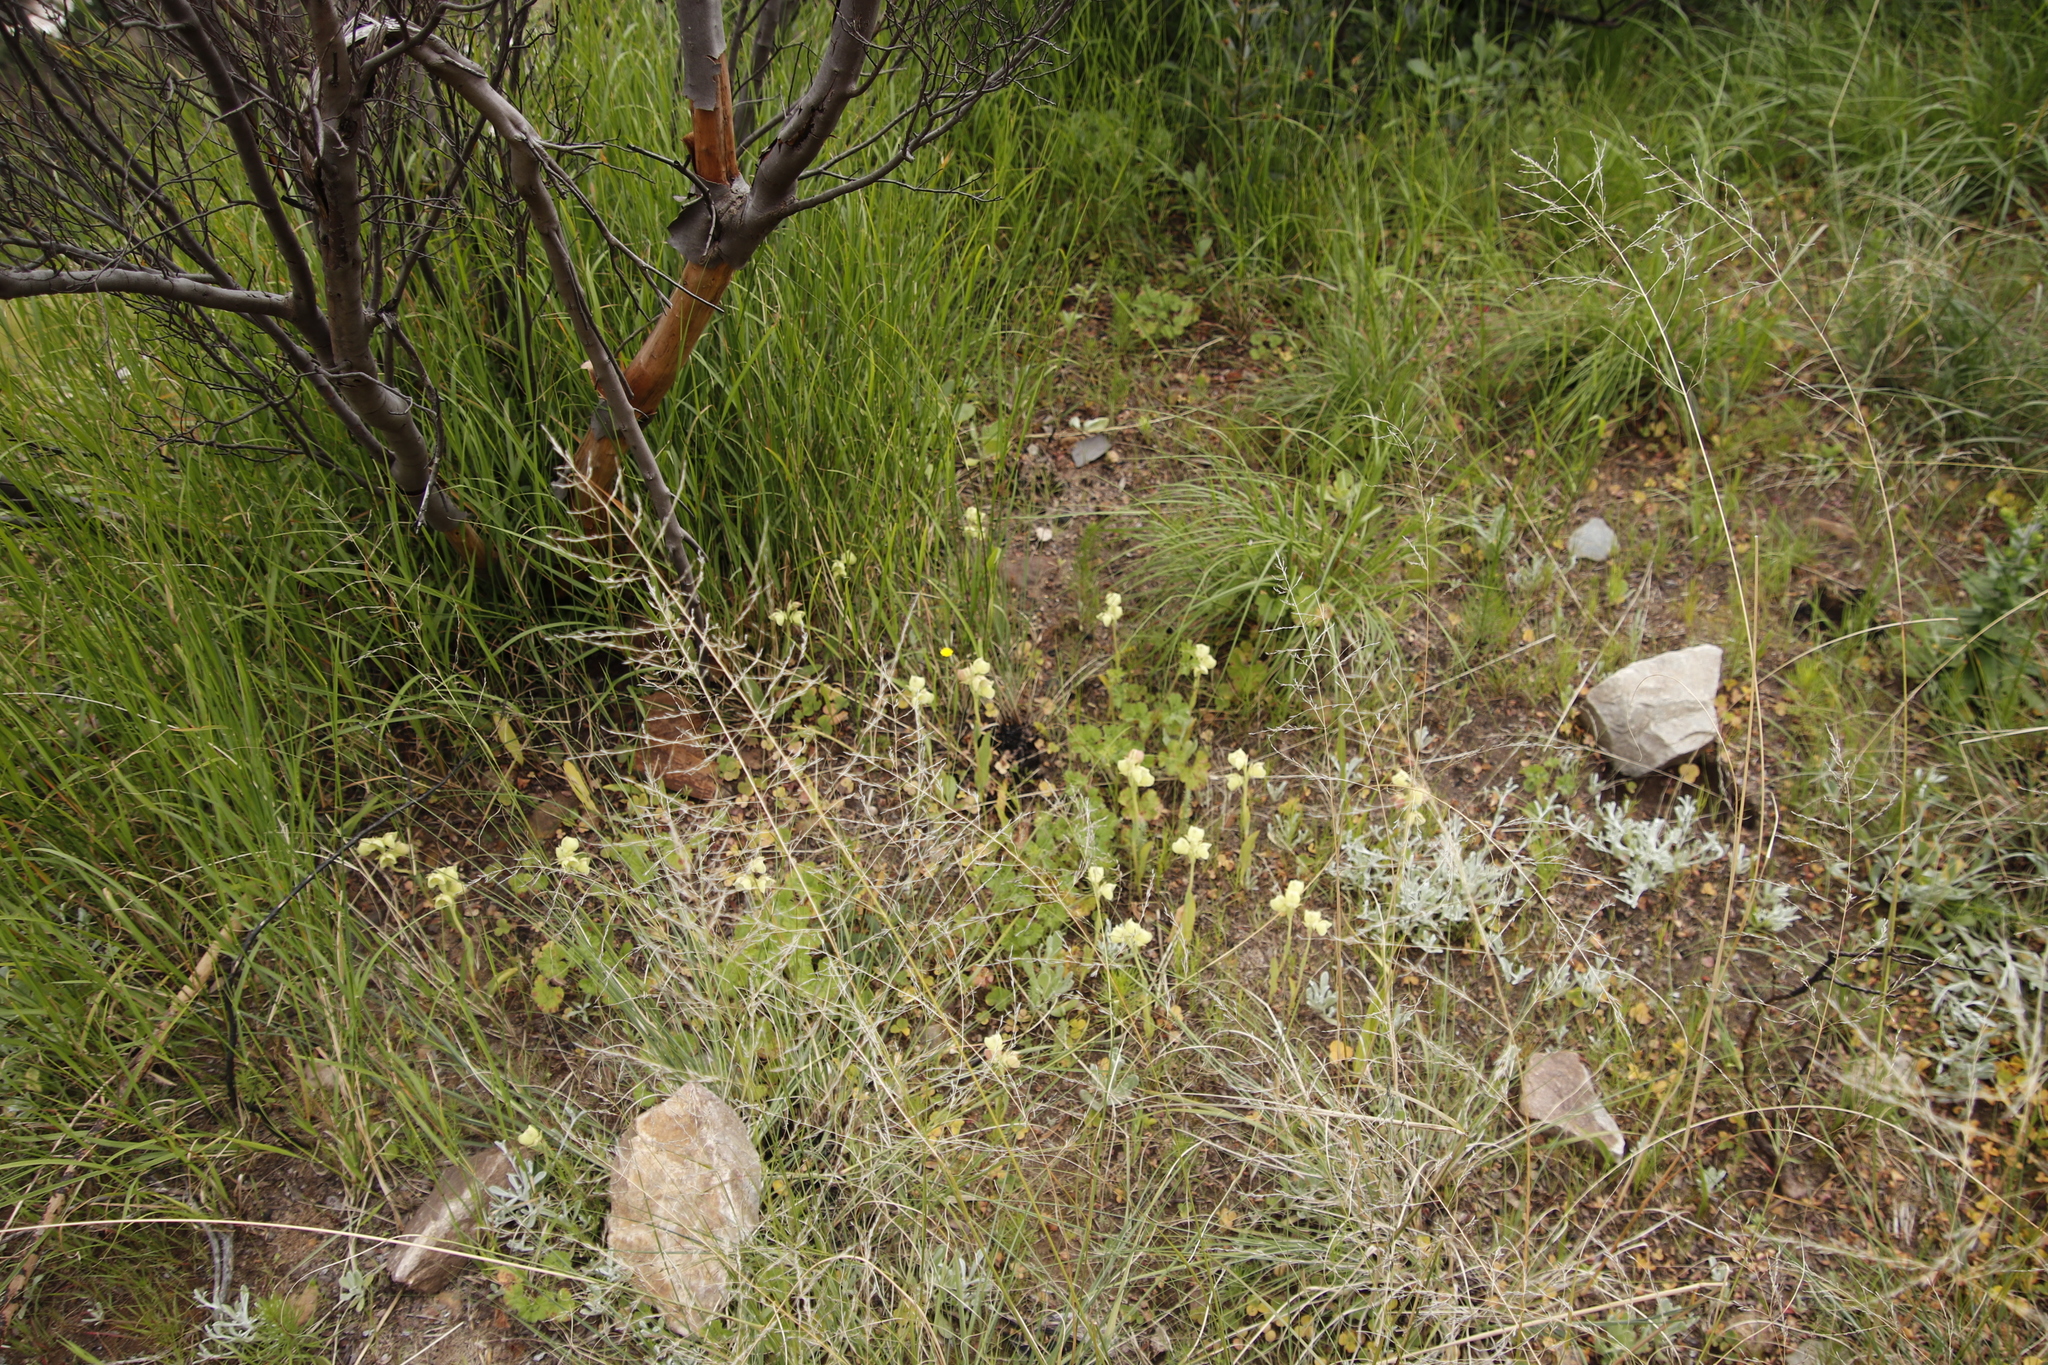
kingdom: Plantae
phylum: Tracheophyta
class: Liliopsida
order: Asparagales
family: Orchidaceae
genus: Pterygodium
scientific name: Pterygodium catholicum
